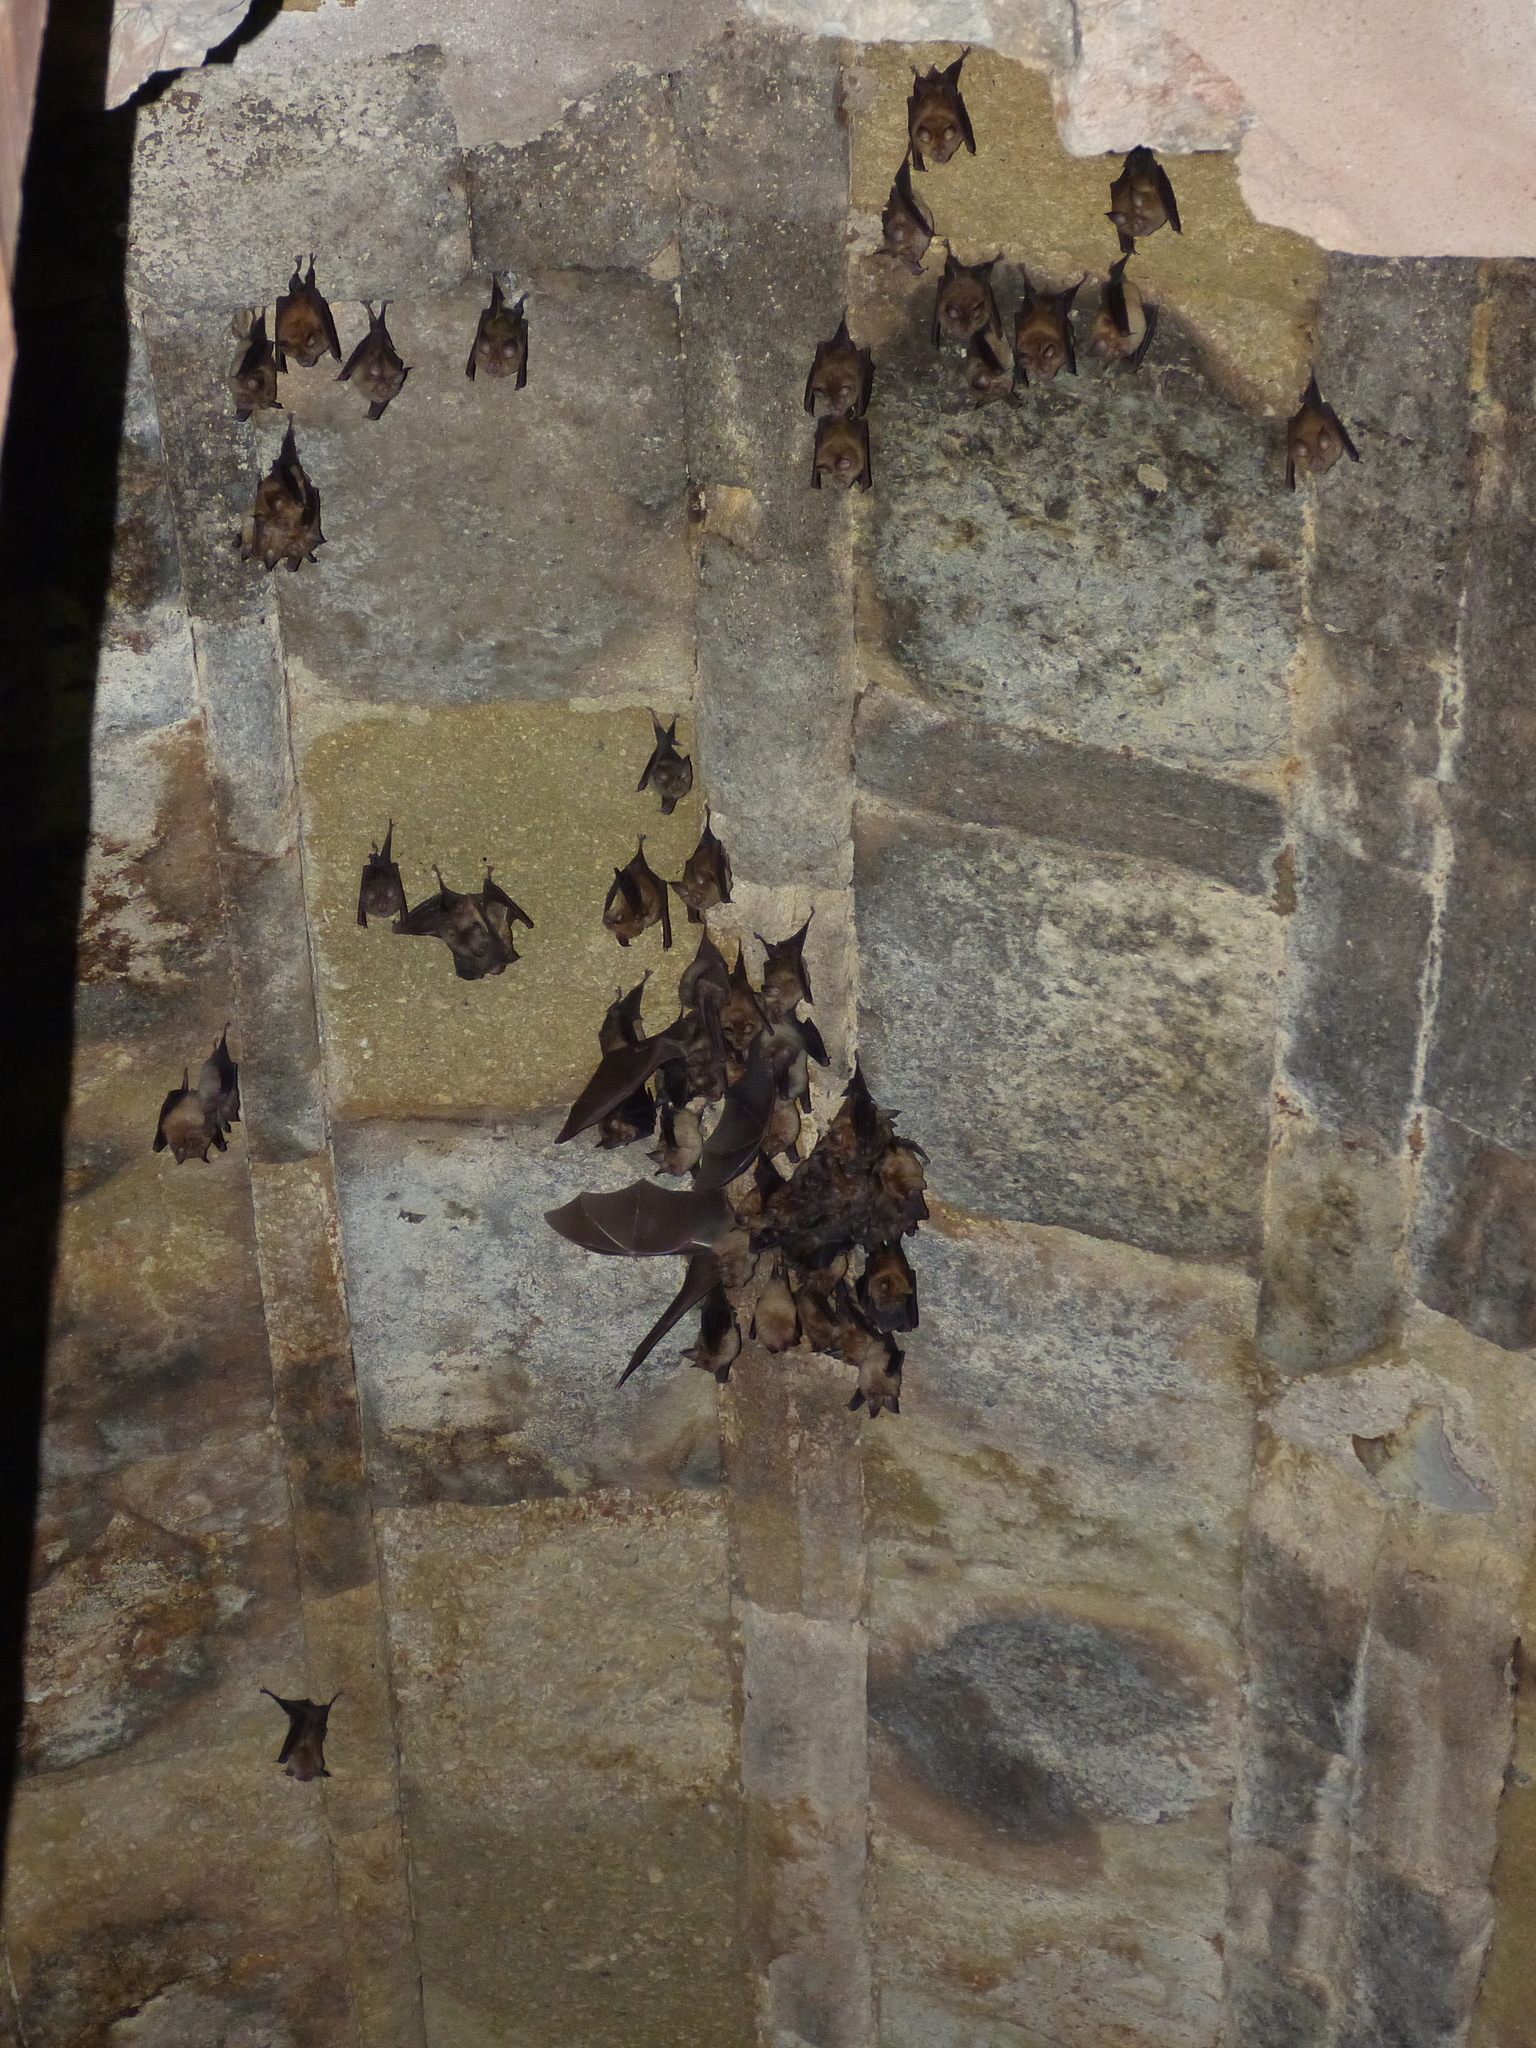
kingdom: Animalia
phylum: Chordata
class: Mammalia
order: Chiroptera
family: Rhinolophidae
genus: Rhinolophus
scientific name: Rhinolophus ferrumequinum
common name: Greater horseshoe bat
